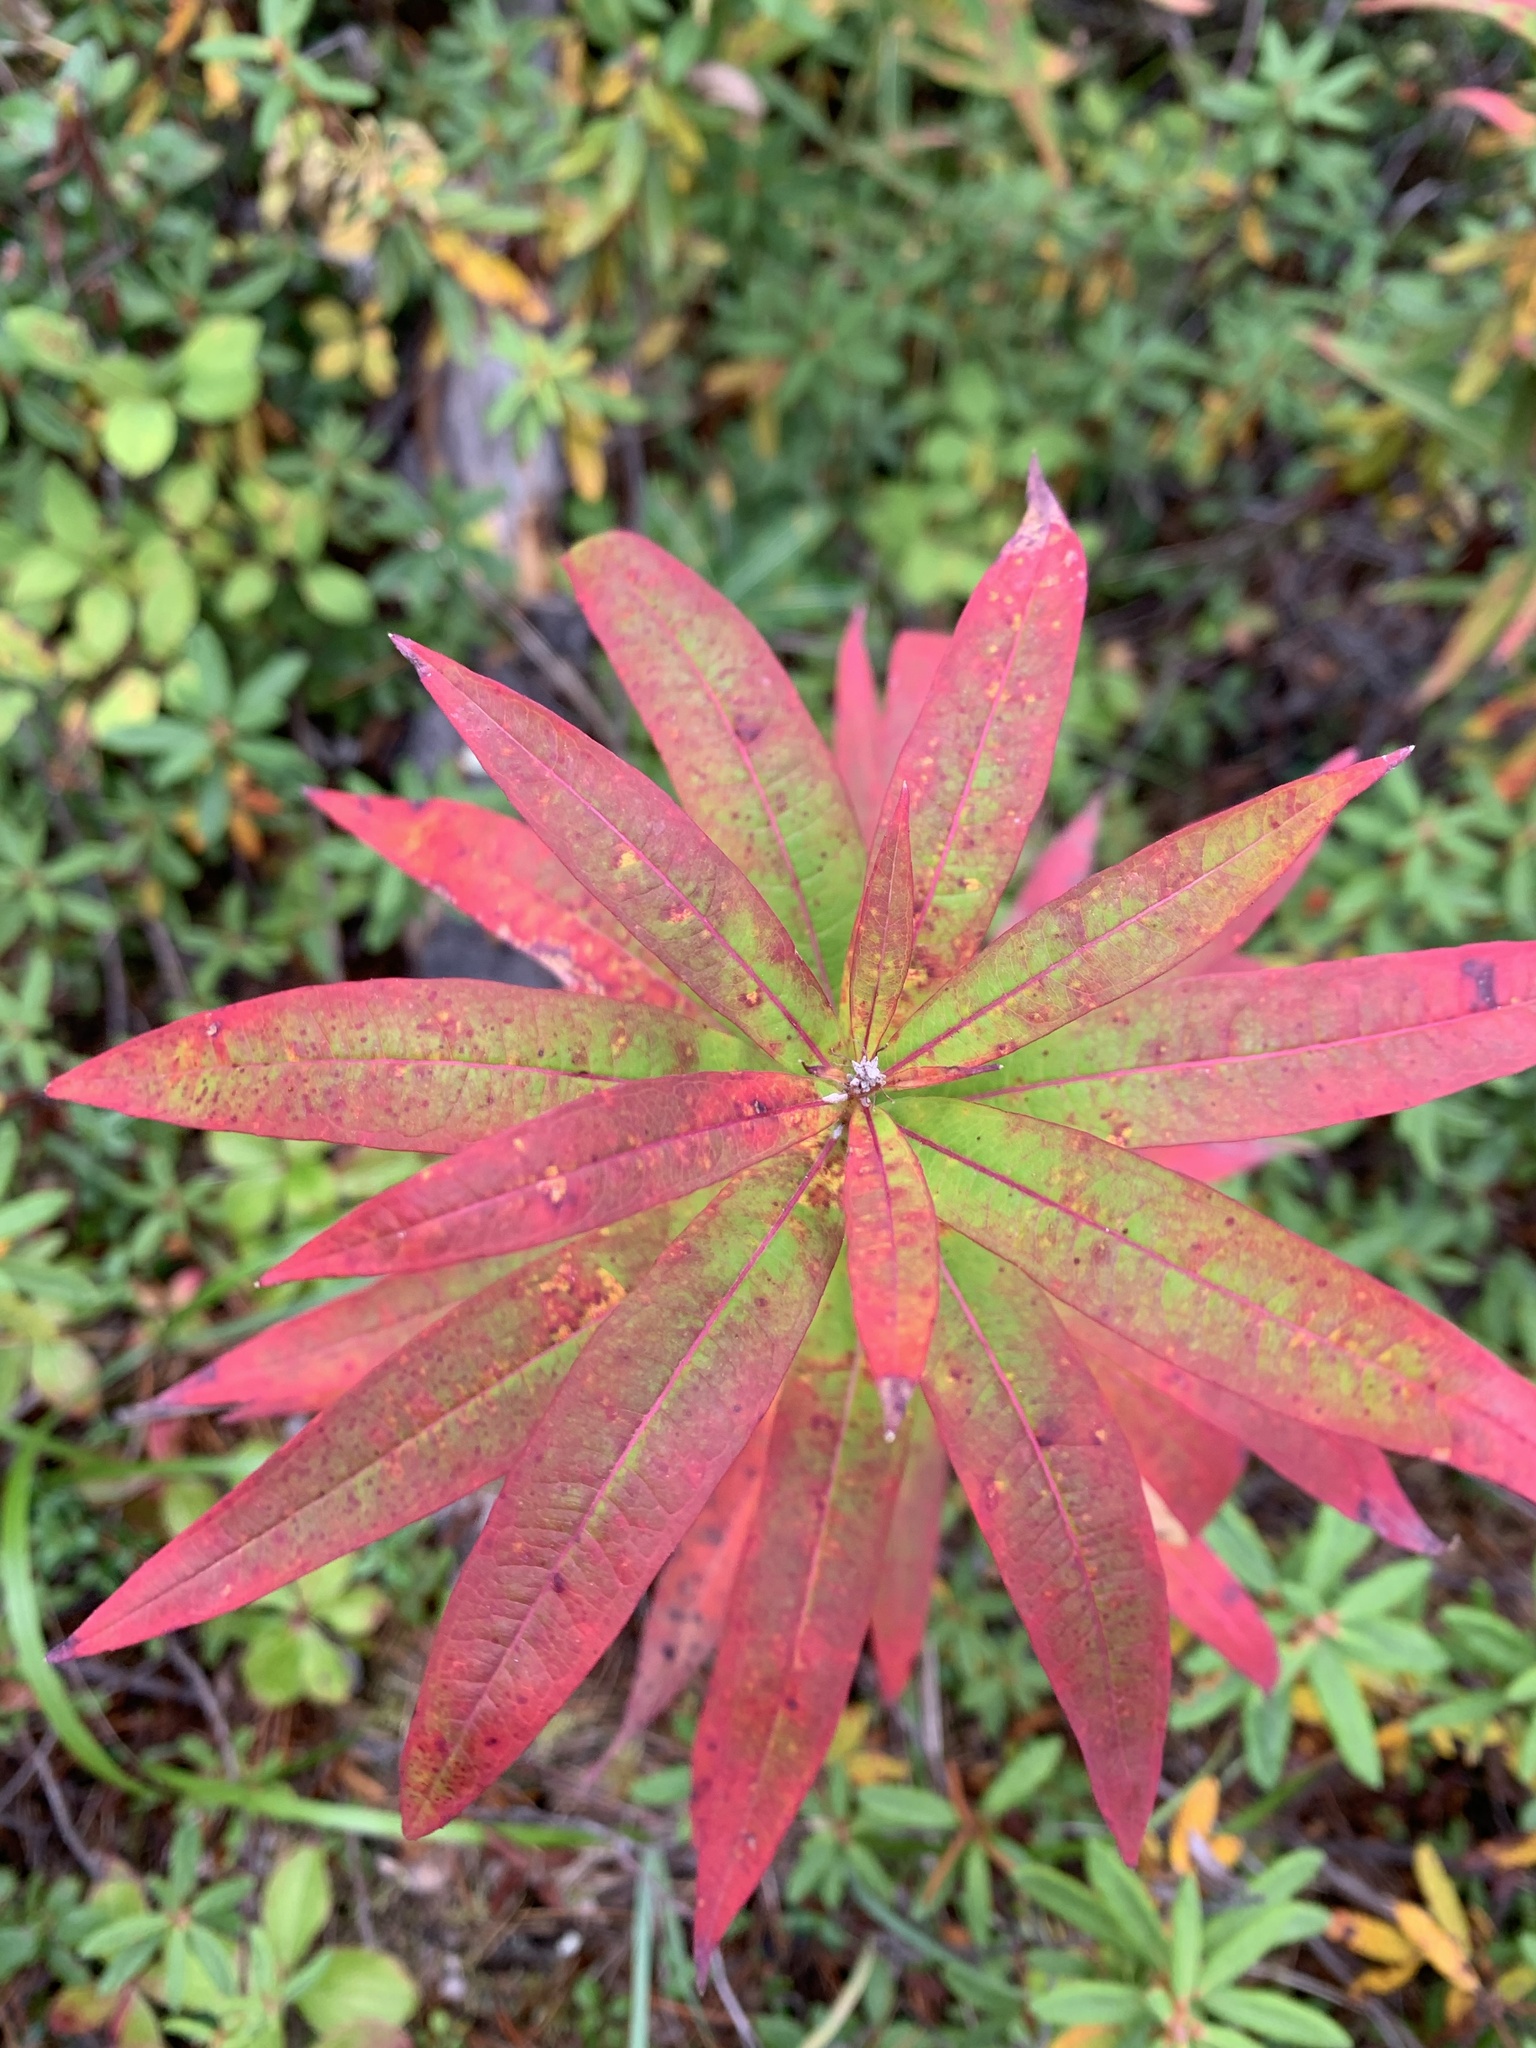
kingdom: Plantae
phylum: Tracheophyta
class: Magnoliopsida
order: Myrtales
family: Onagraceae
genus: Chamaenerion
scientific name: Chamaenerion angustifolium
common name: Fireweed
